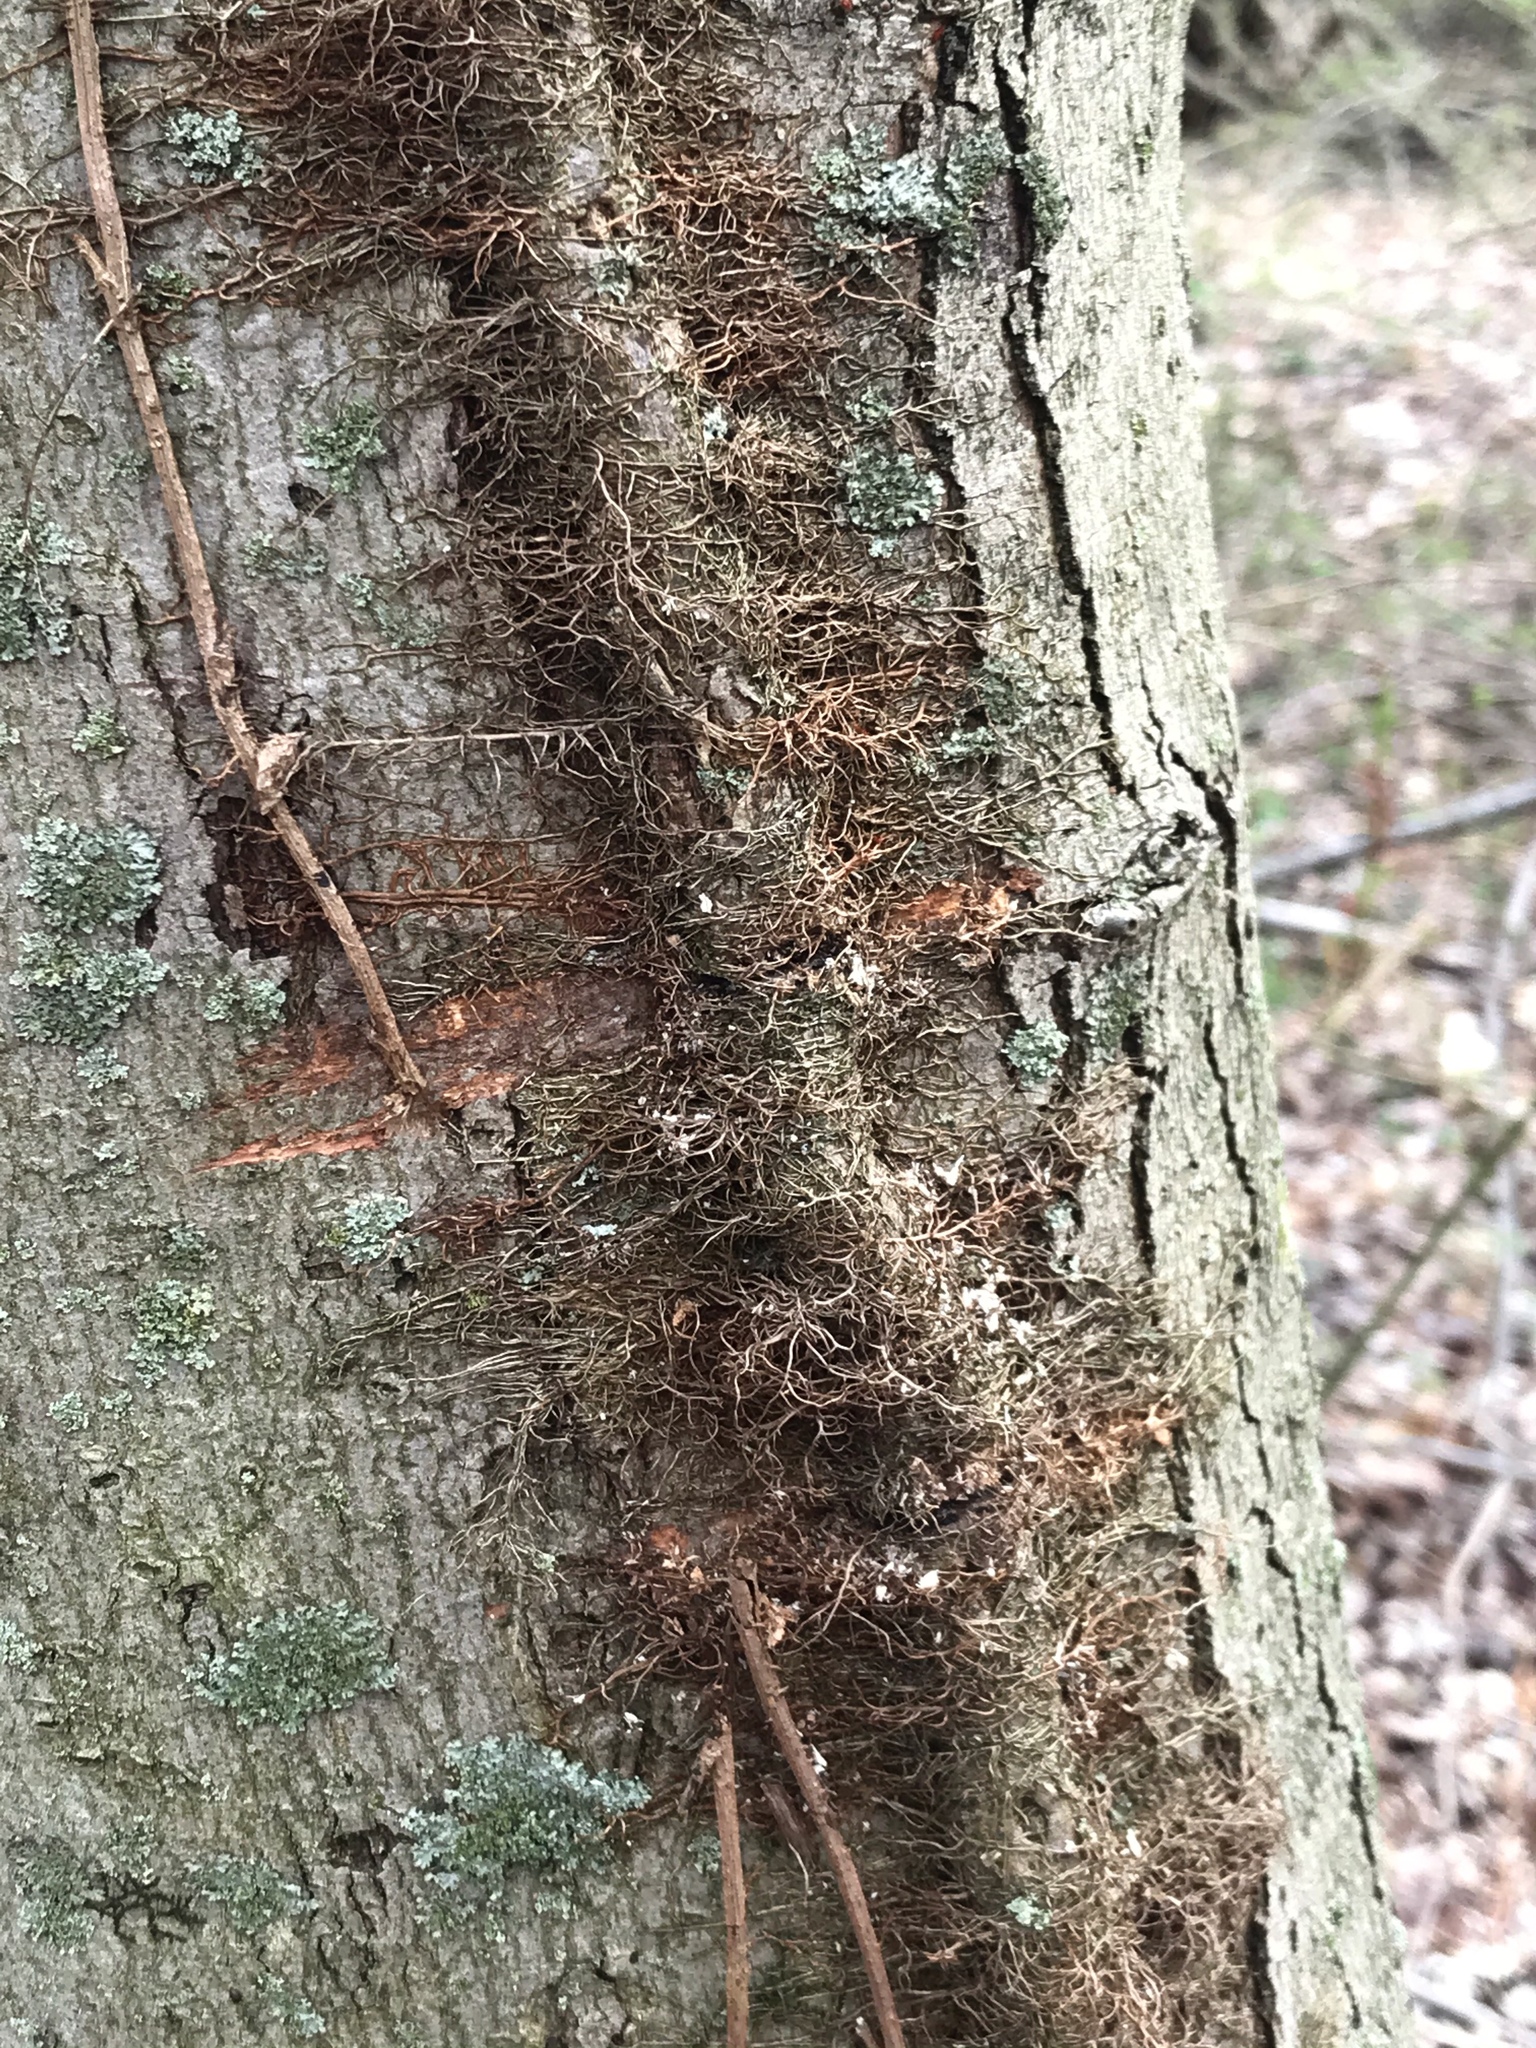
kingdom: Plantae
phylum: Tracheophyta
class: Magnoliopsida
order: Sapindales
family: Anacardiaceae
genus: Toxicodendron
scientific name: Toxicodendron radicans
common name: Poison ivy
